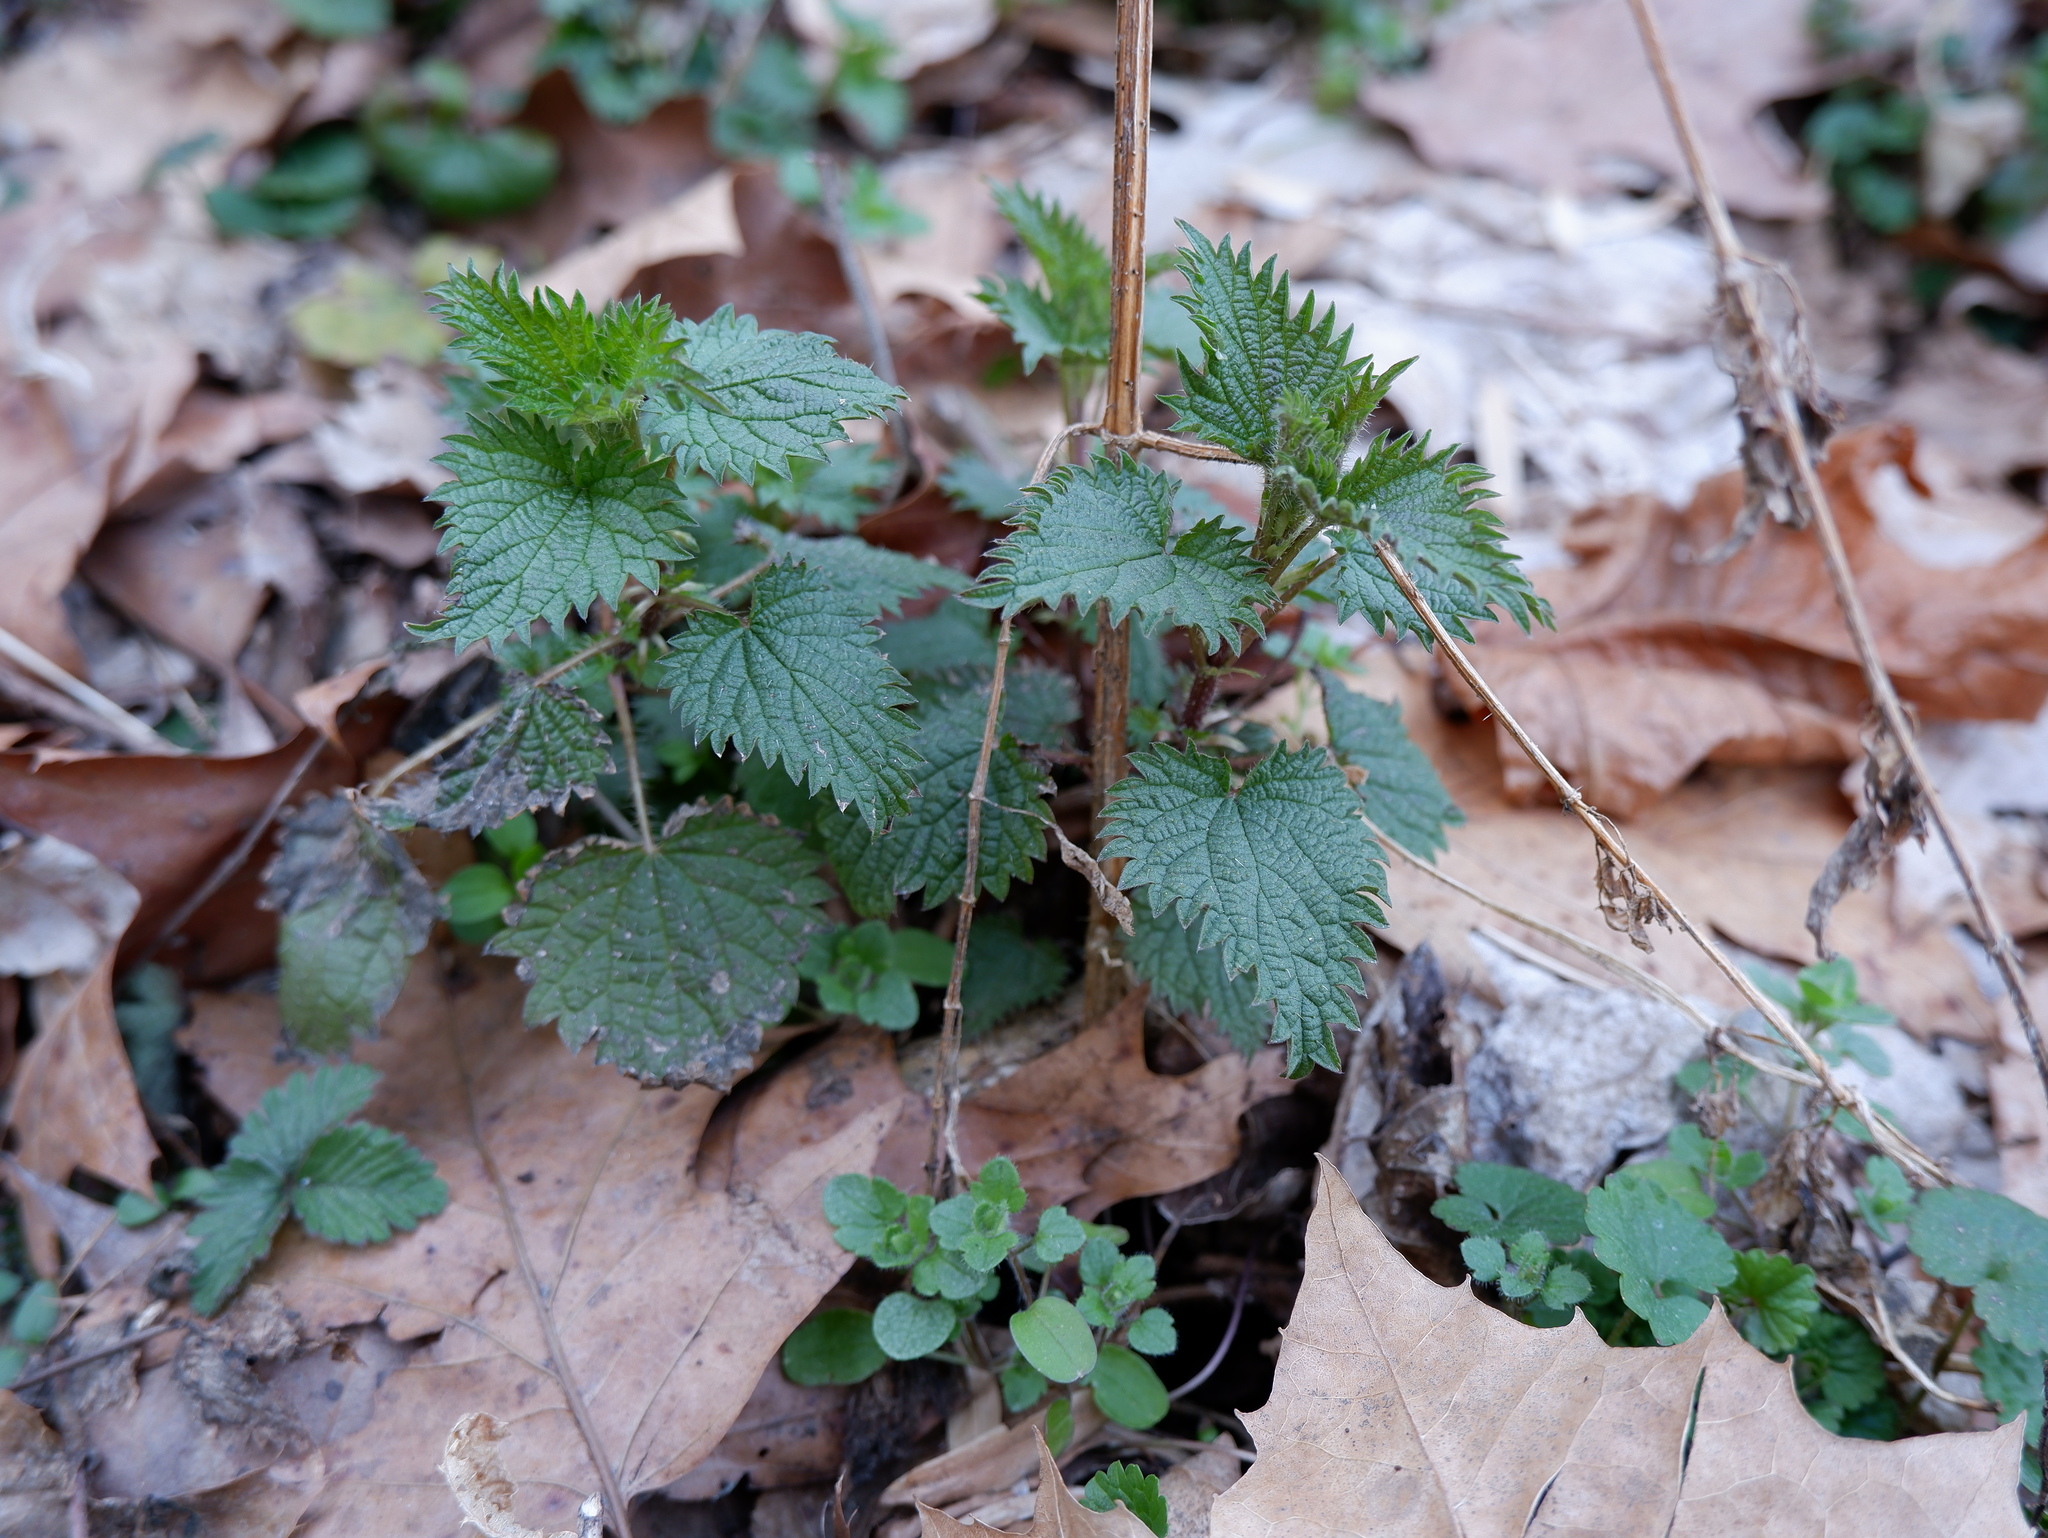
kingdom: Plantae
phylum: Tracheophyta
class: Magnoliopsida
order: Rosales
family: Urticaceae
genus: Urtica
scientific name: Urtica dioica
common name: Common nettle
